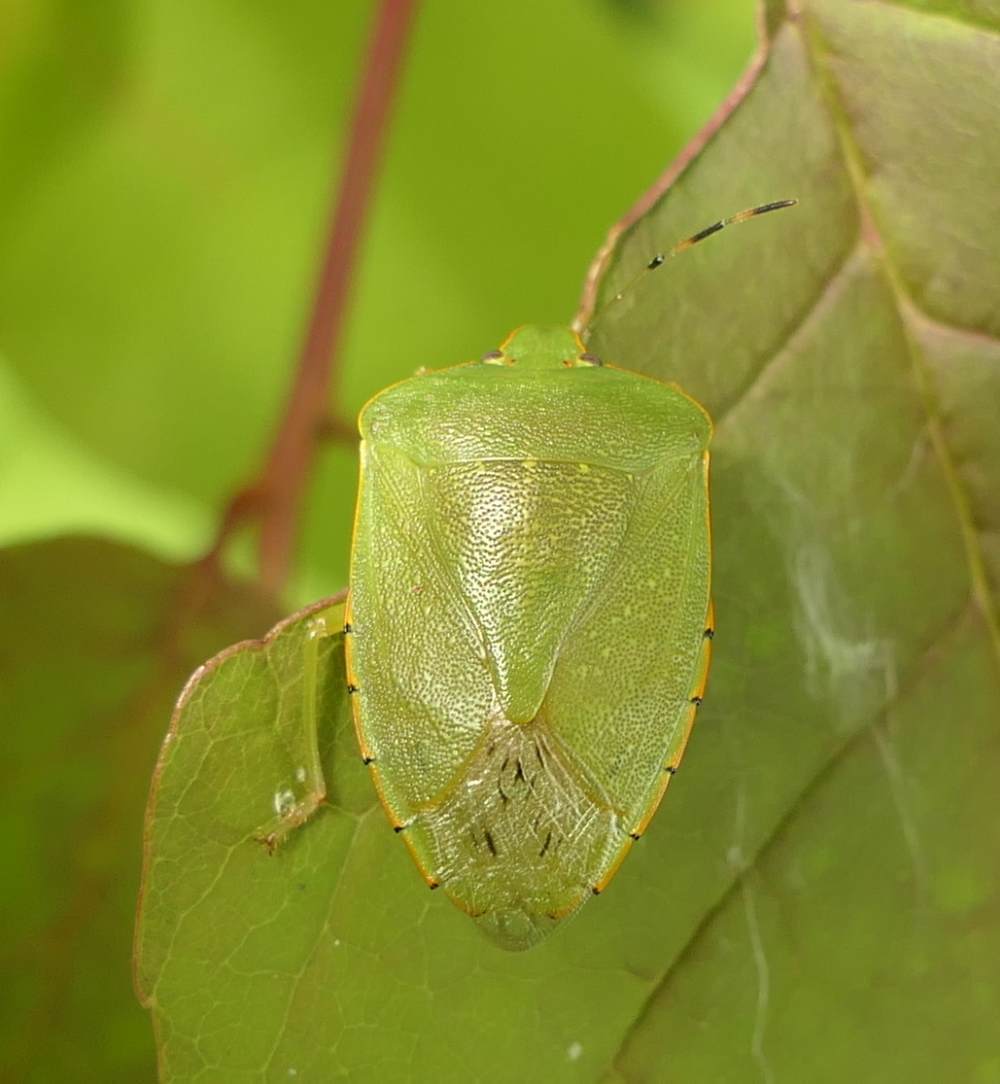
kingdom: Animalia
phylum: Arthropoda
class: Insecta
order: Hemiptera
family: Pentatomidae
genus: Chinavia
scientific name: Chinavia hilaris
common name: Green stink bug
